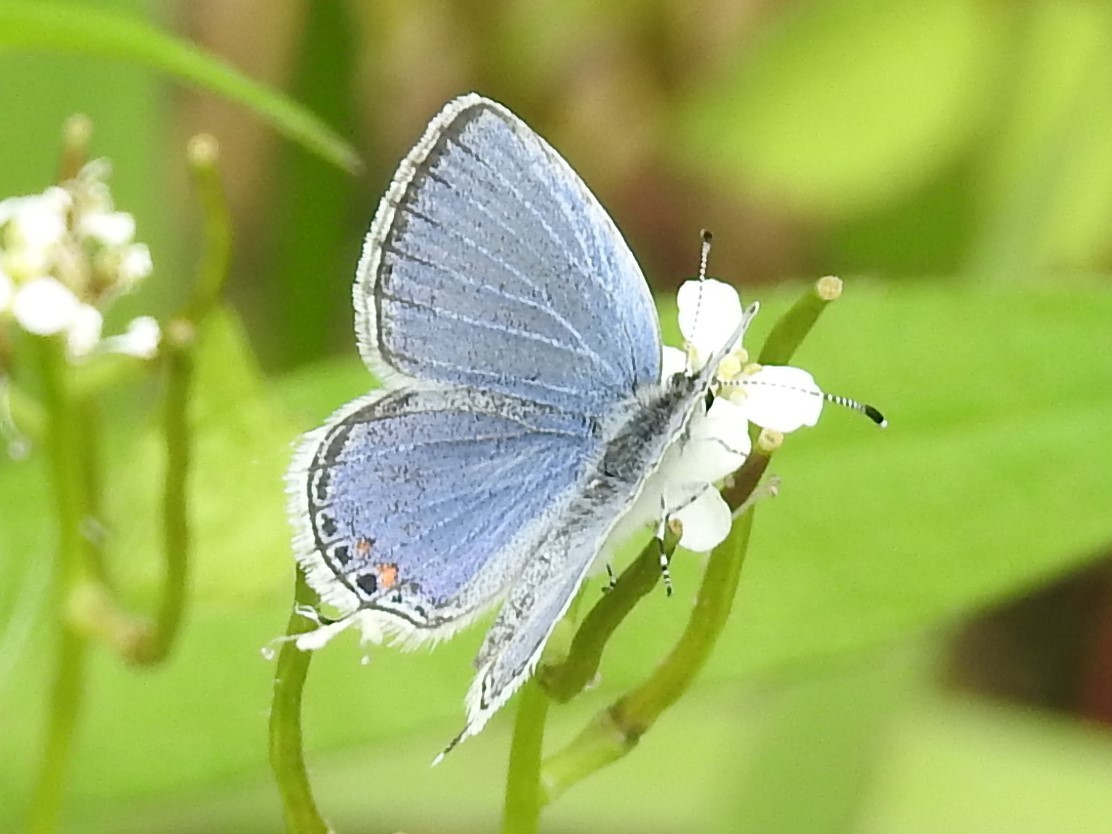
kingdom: Animalia
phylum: Arthropoda
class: Insecta
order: Lepidoptera
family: Lycaenidae
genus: Elkalyce
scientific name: Elkalyce comyntas
